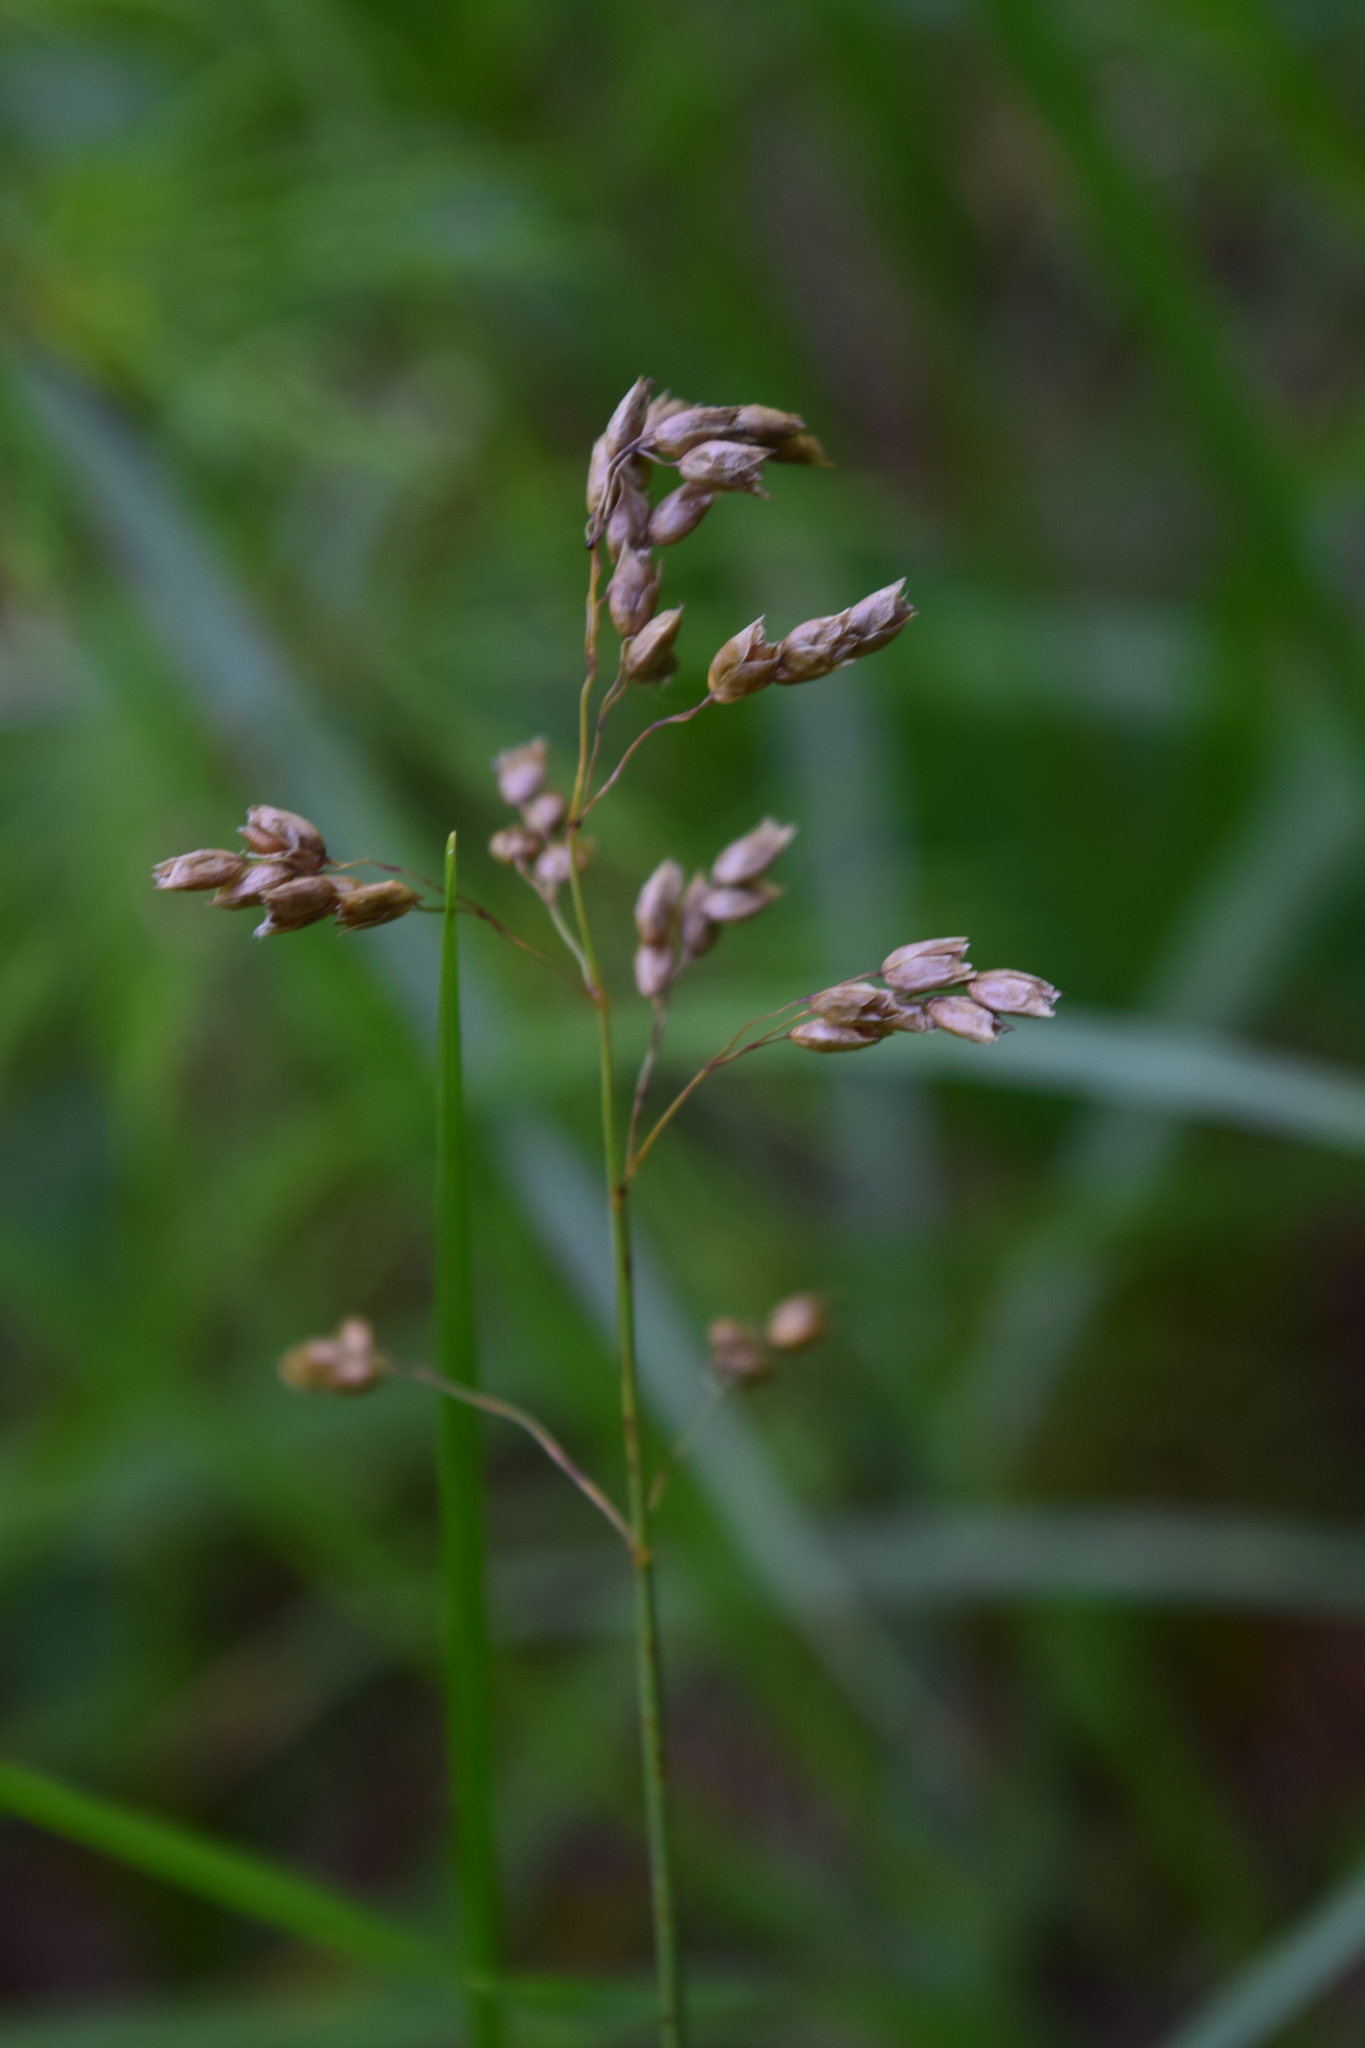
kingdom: Plantae
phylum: Tracheophyta
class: Liliopsida
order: Poales
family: Poaceae
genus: Anthoxanthum
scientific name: Anthoxanthum nitens
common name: Holy grass
